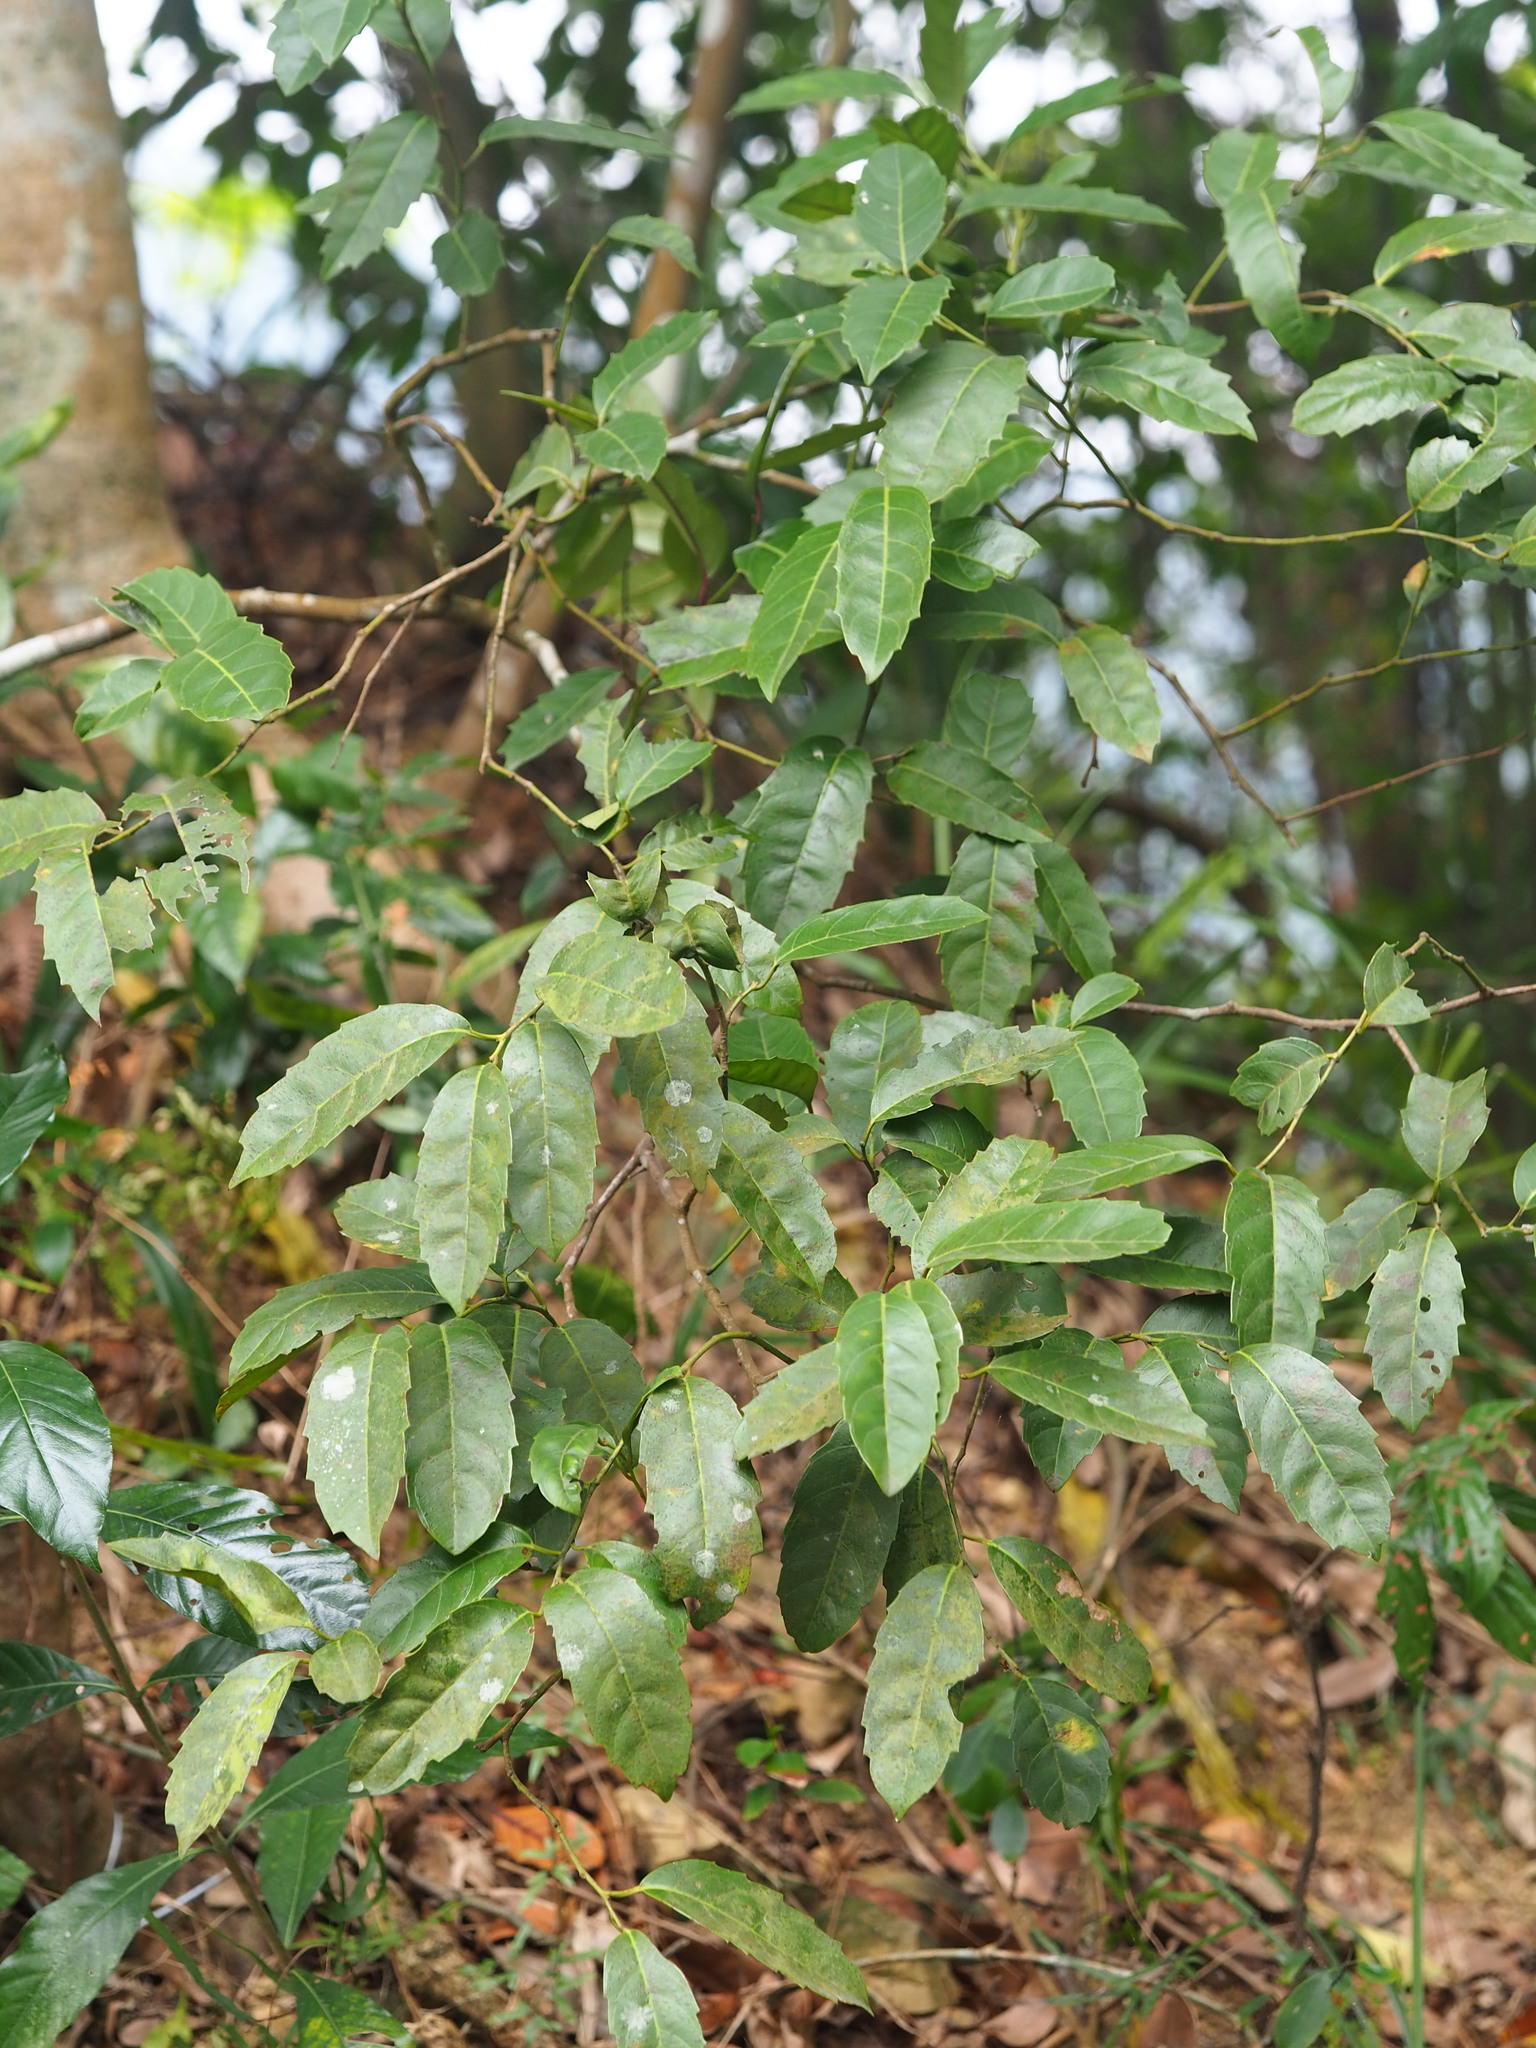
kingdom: Plantae
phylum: Tracheophyta
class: Magnoliopsida
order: Saxifragales
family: Iteaceae
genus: Itea
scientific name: Itea oldhamii
